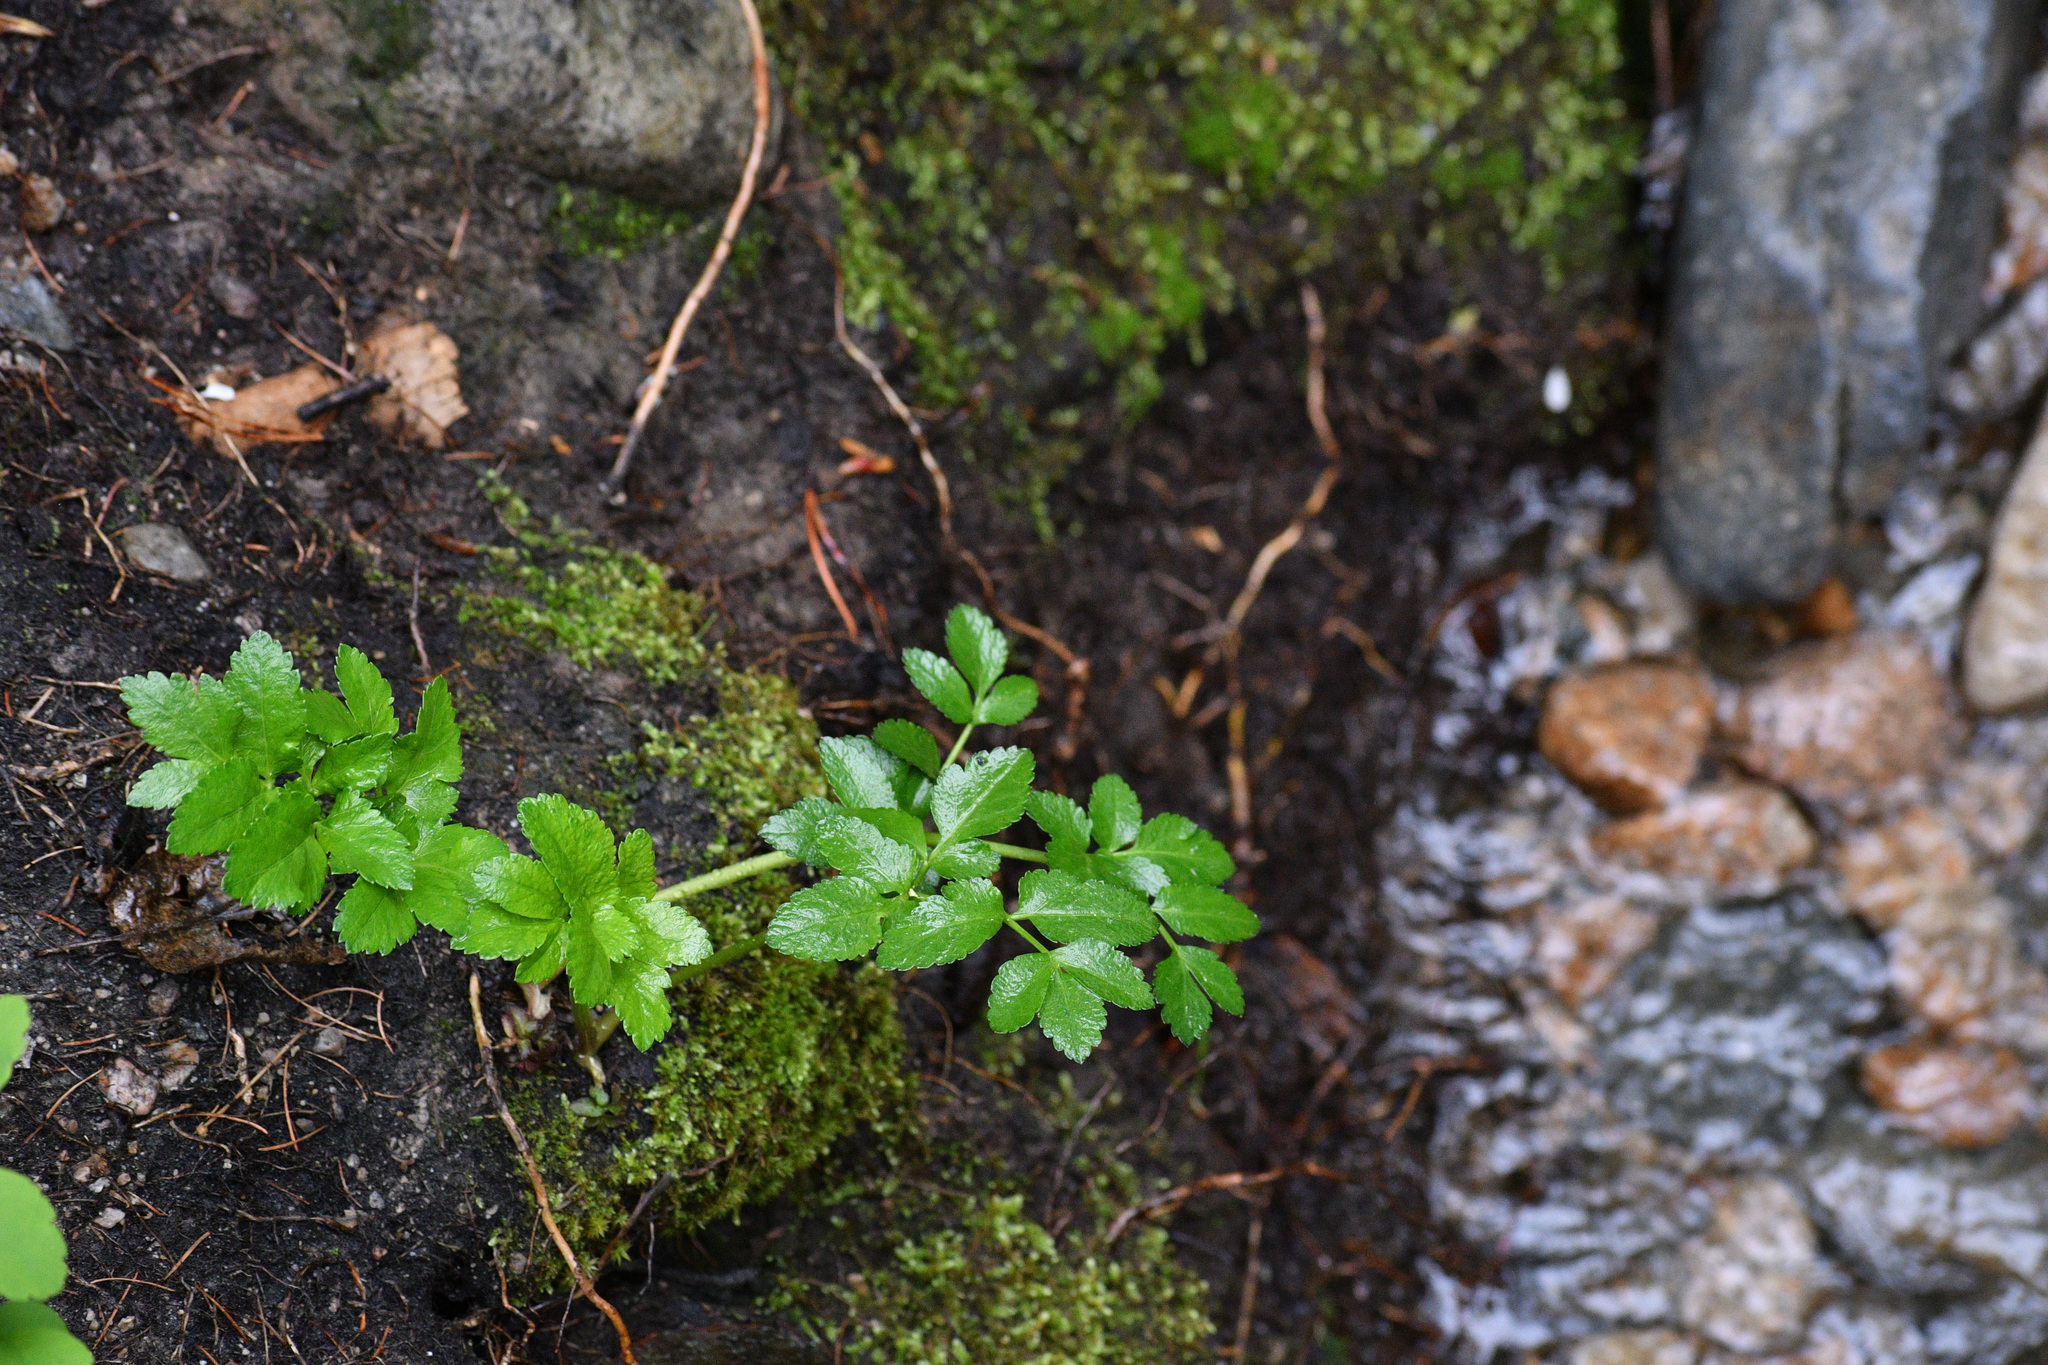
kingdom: Plantae
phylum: Tracheophyta
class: Magnoliopsida
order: Apiales
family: Apiaceae
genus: Angelica
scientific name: Angelica arguta
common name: Lyall's angelica
